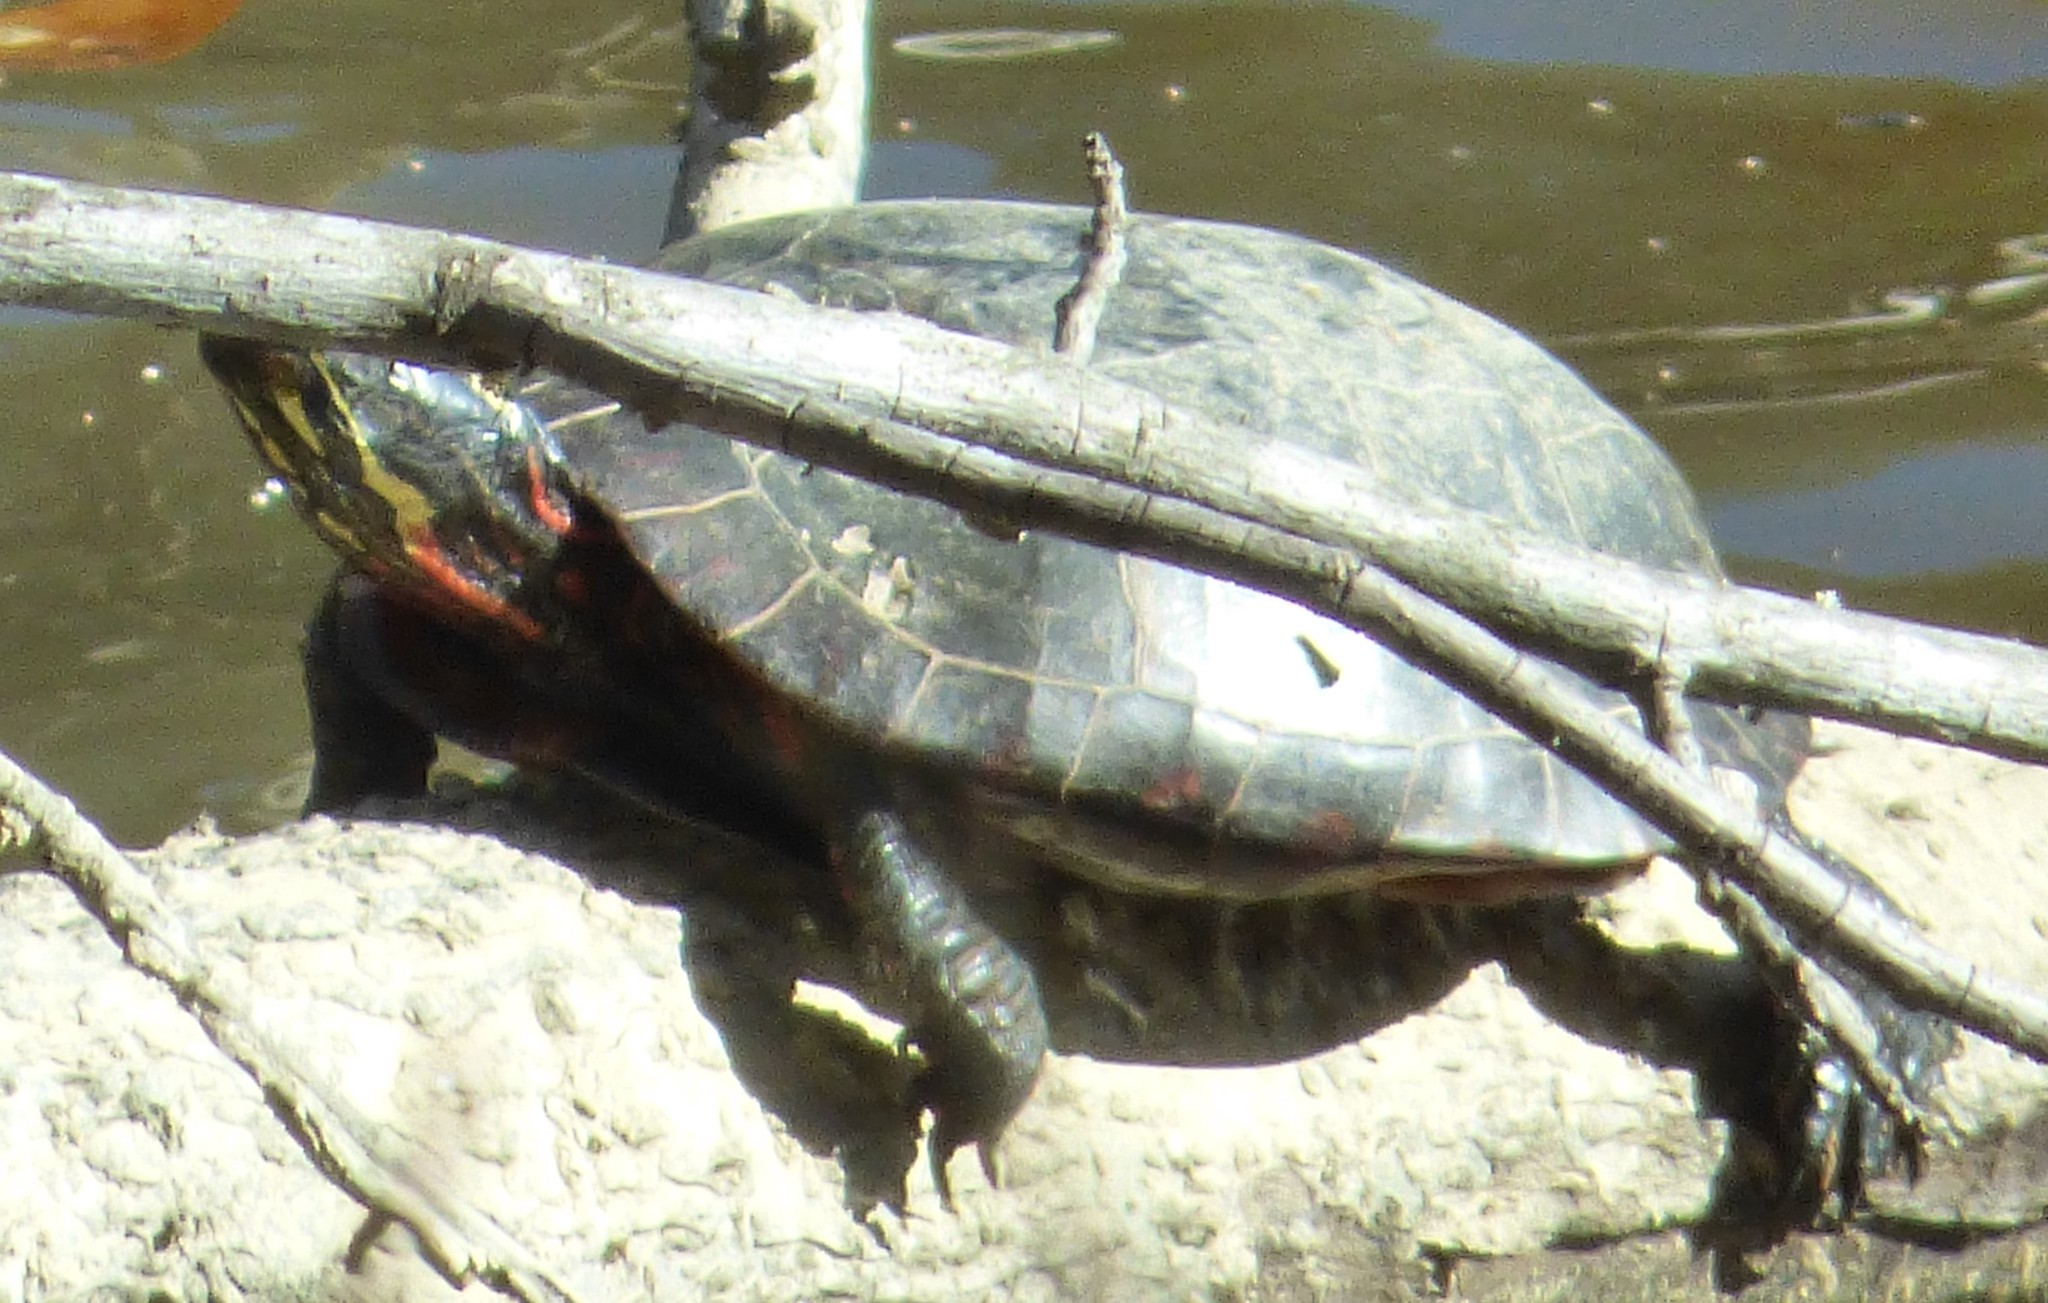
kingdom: Animalia
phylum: Chordata
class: Testudines
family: Emydidae
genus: Chrysemys
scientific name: Chrysemys picta
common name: Painted turtle
